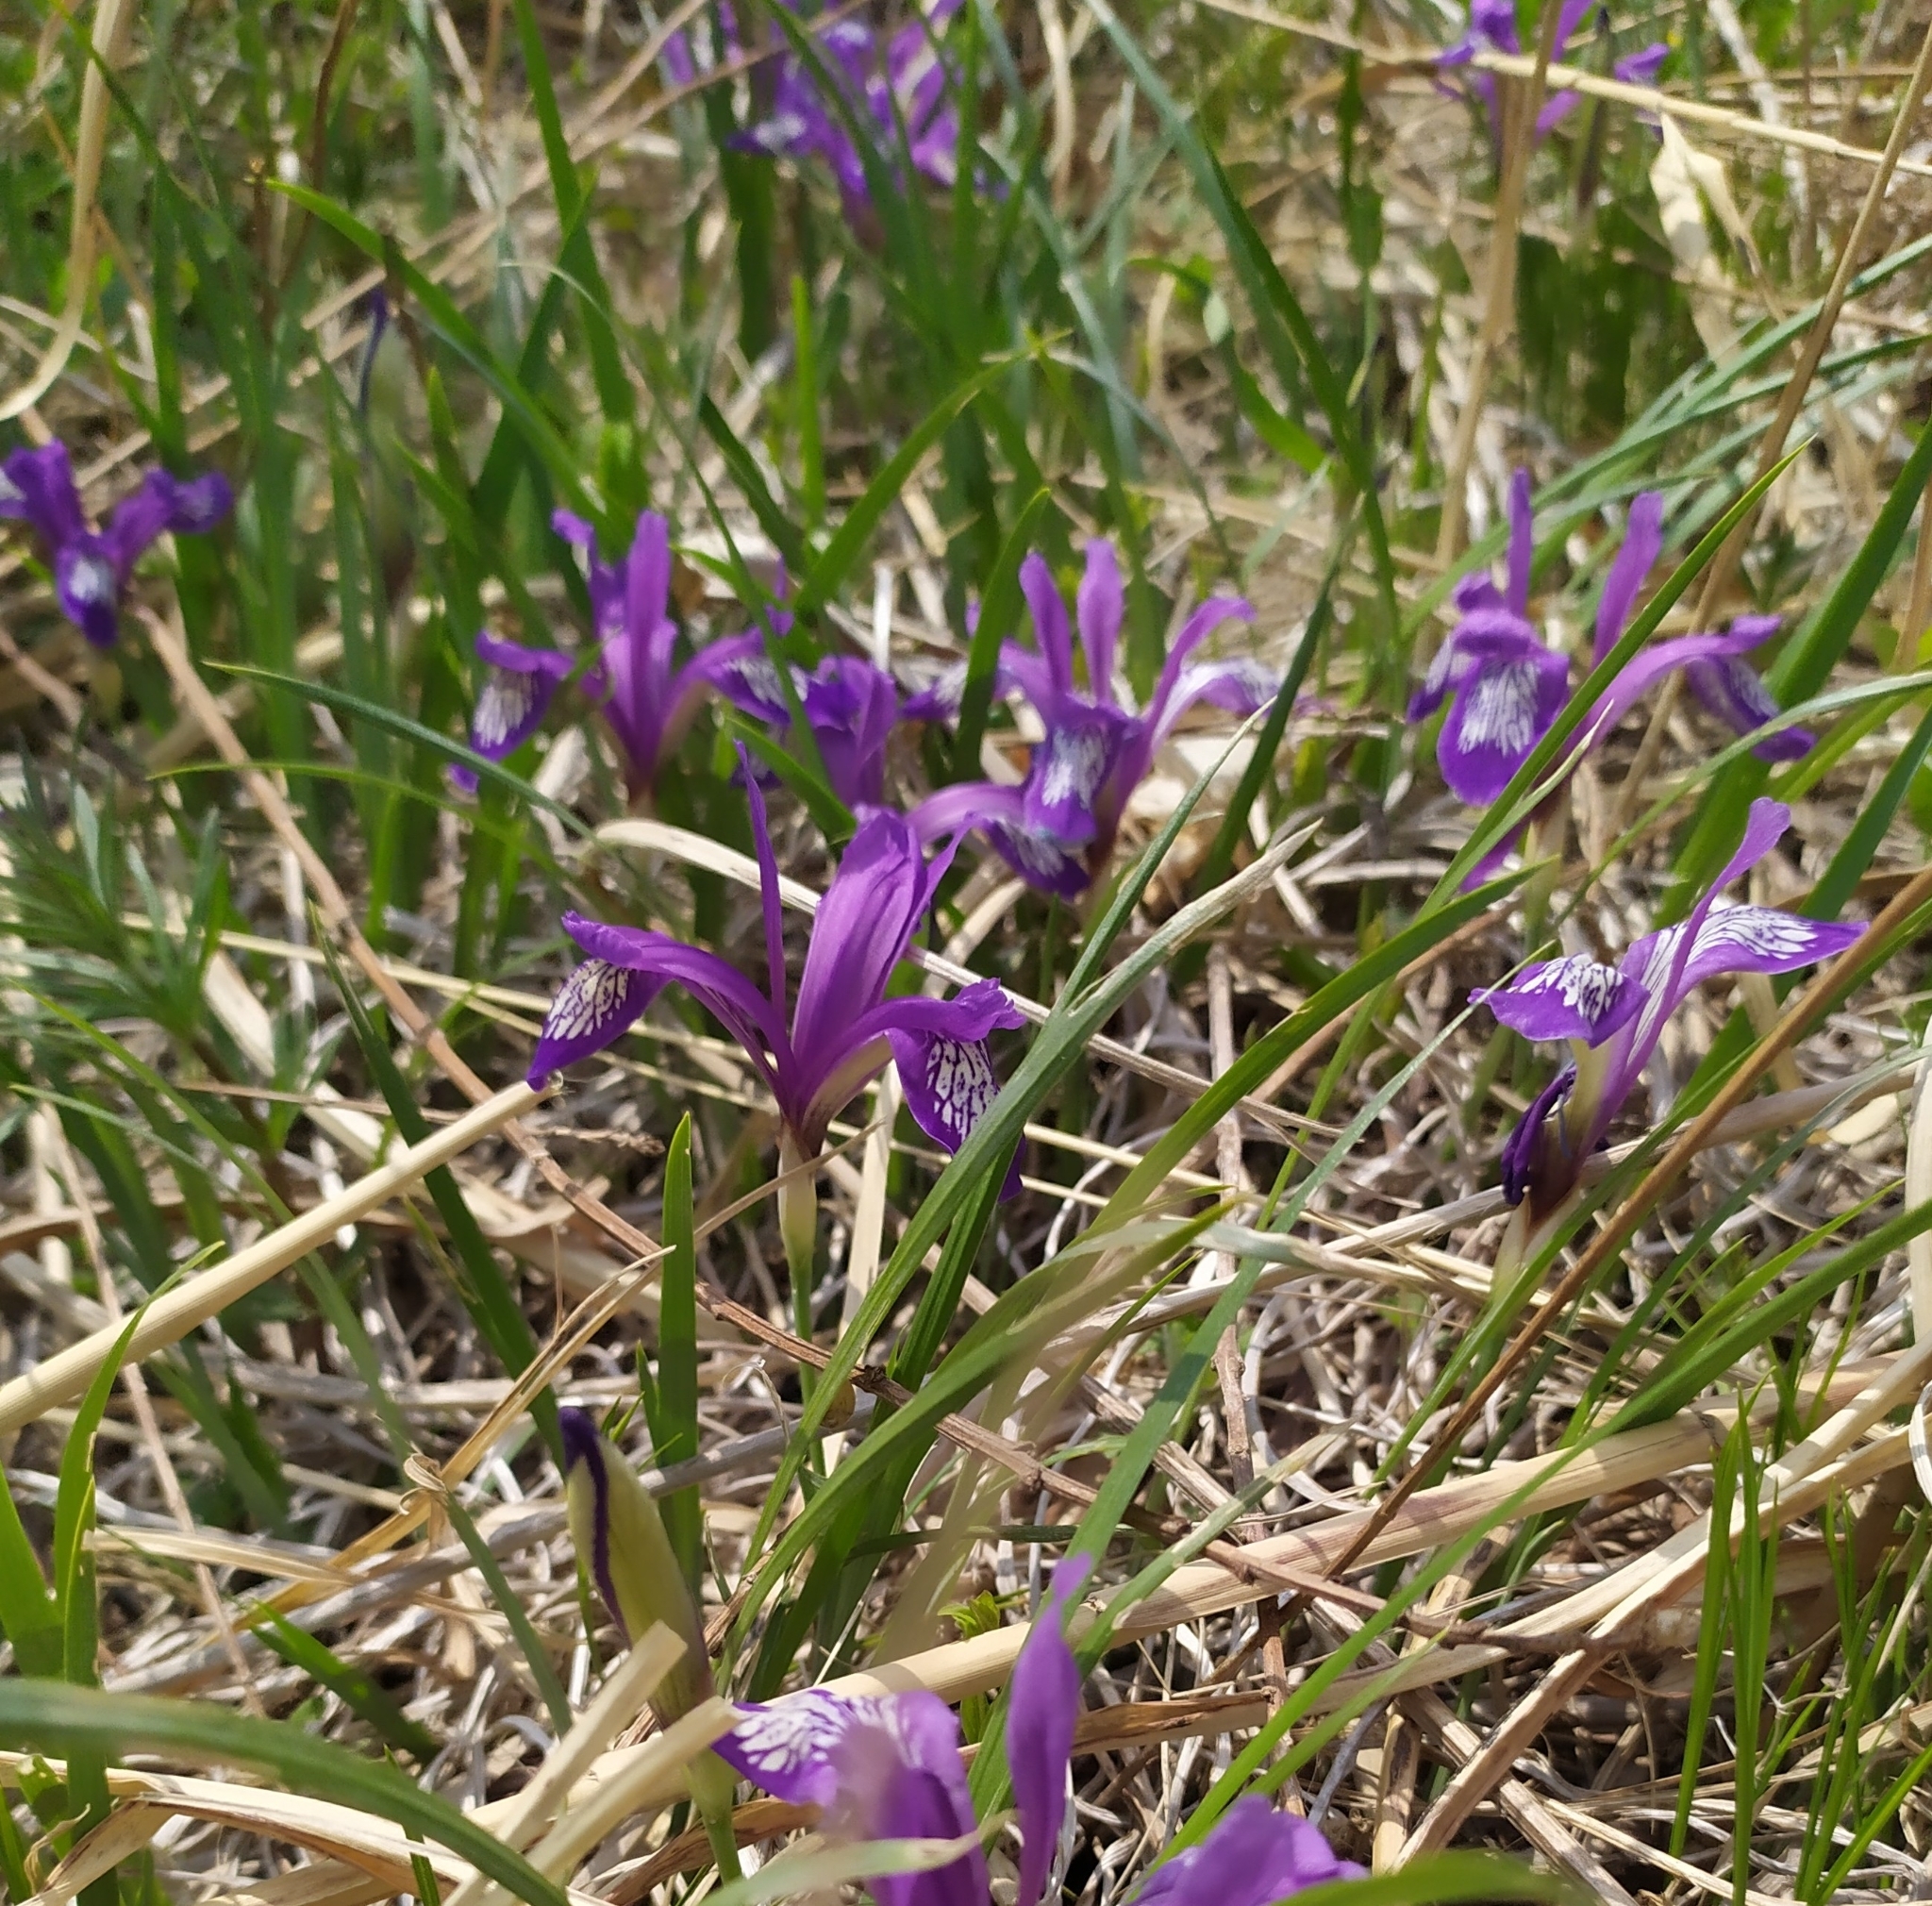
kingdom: Plantae
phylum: Tracheophyta
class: Liliopsida
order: Asparagales
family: Iridaceae
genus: Iris
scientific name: Iris uniflora
